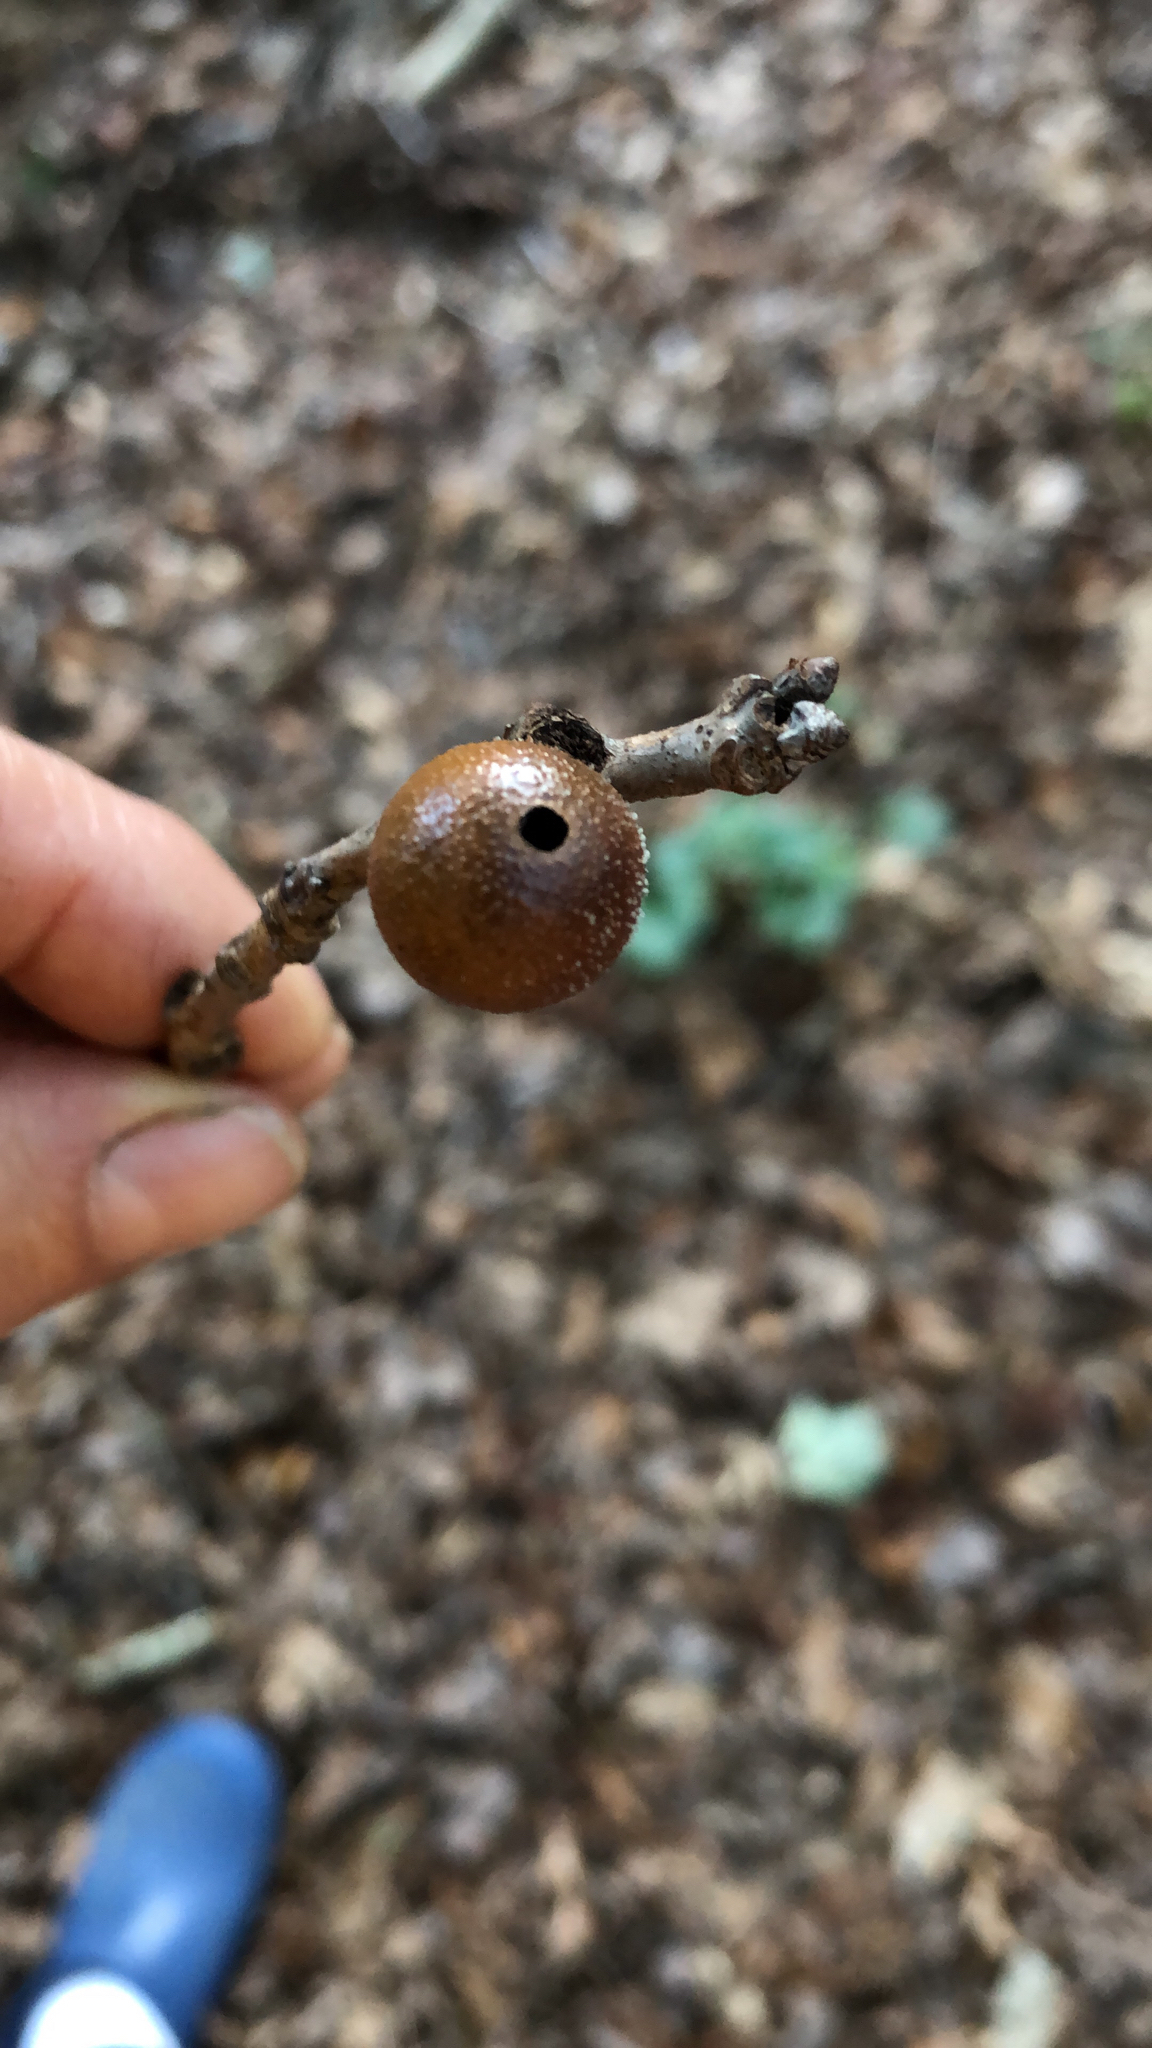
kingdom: Animalia
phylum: Arthropoda
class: Insecta
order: Hymenoptera
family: Cynipidae
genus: Disholcaspis
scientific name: Disholcaspis quercusglobulus
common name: Round bullet gall wasp
